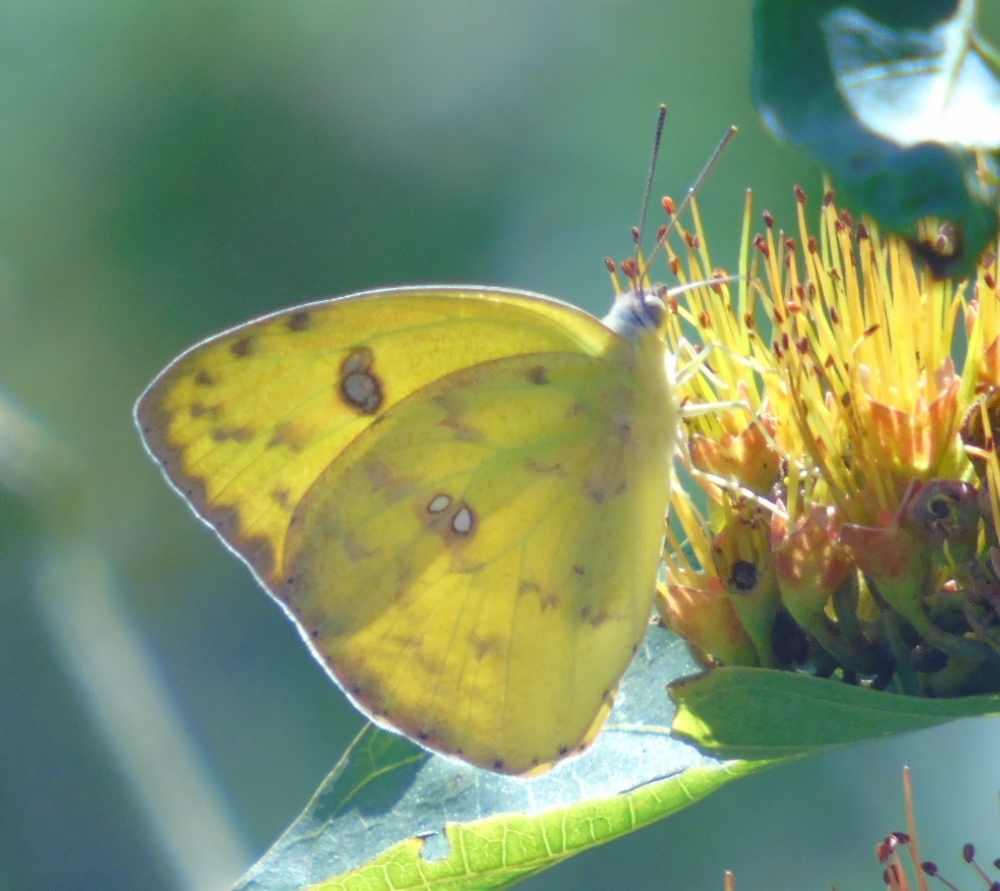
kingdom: Animalia
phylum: Arthropoda
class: Insecta
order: Lepidoptera
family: Pieridae
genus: Phoebis
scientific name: Phoebis marcellina
